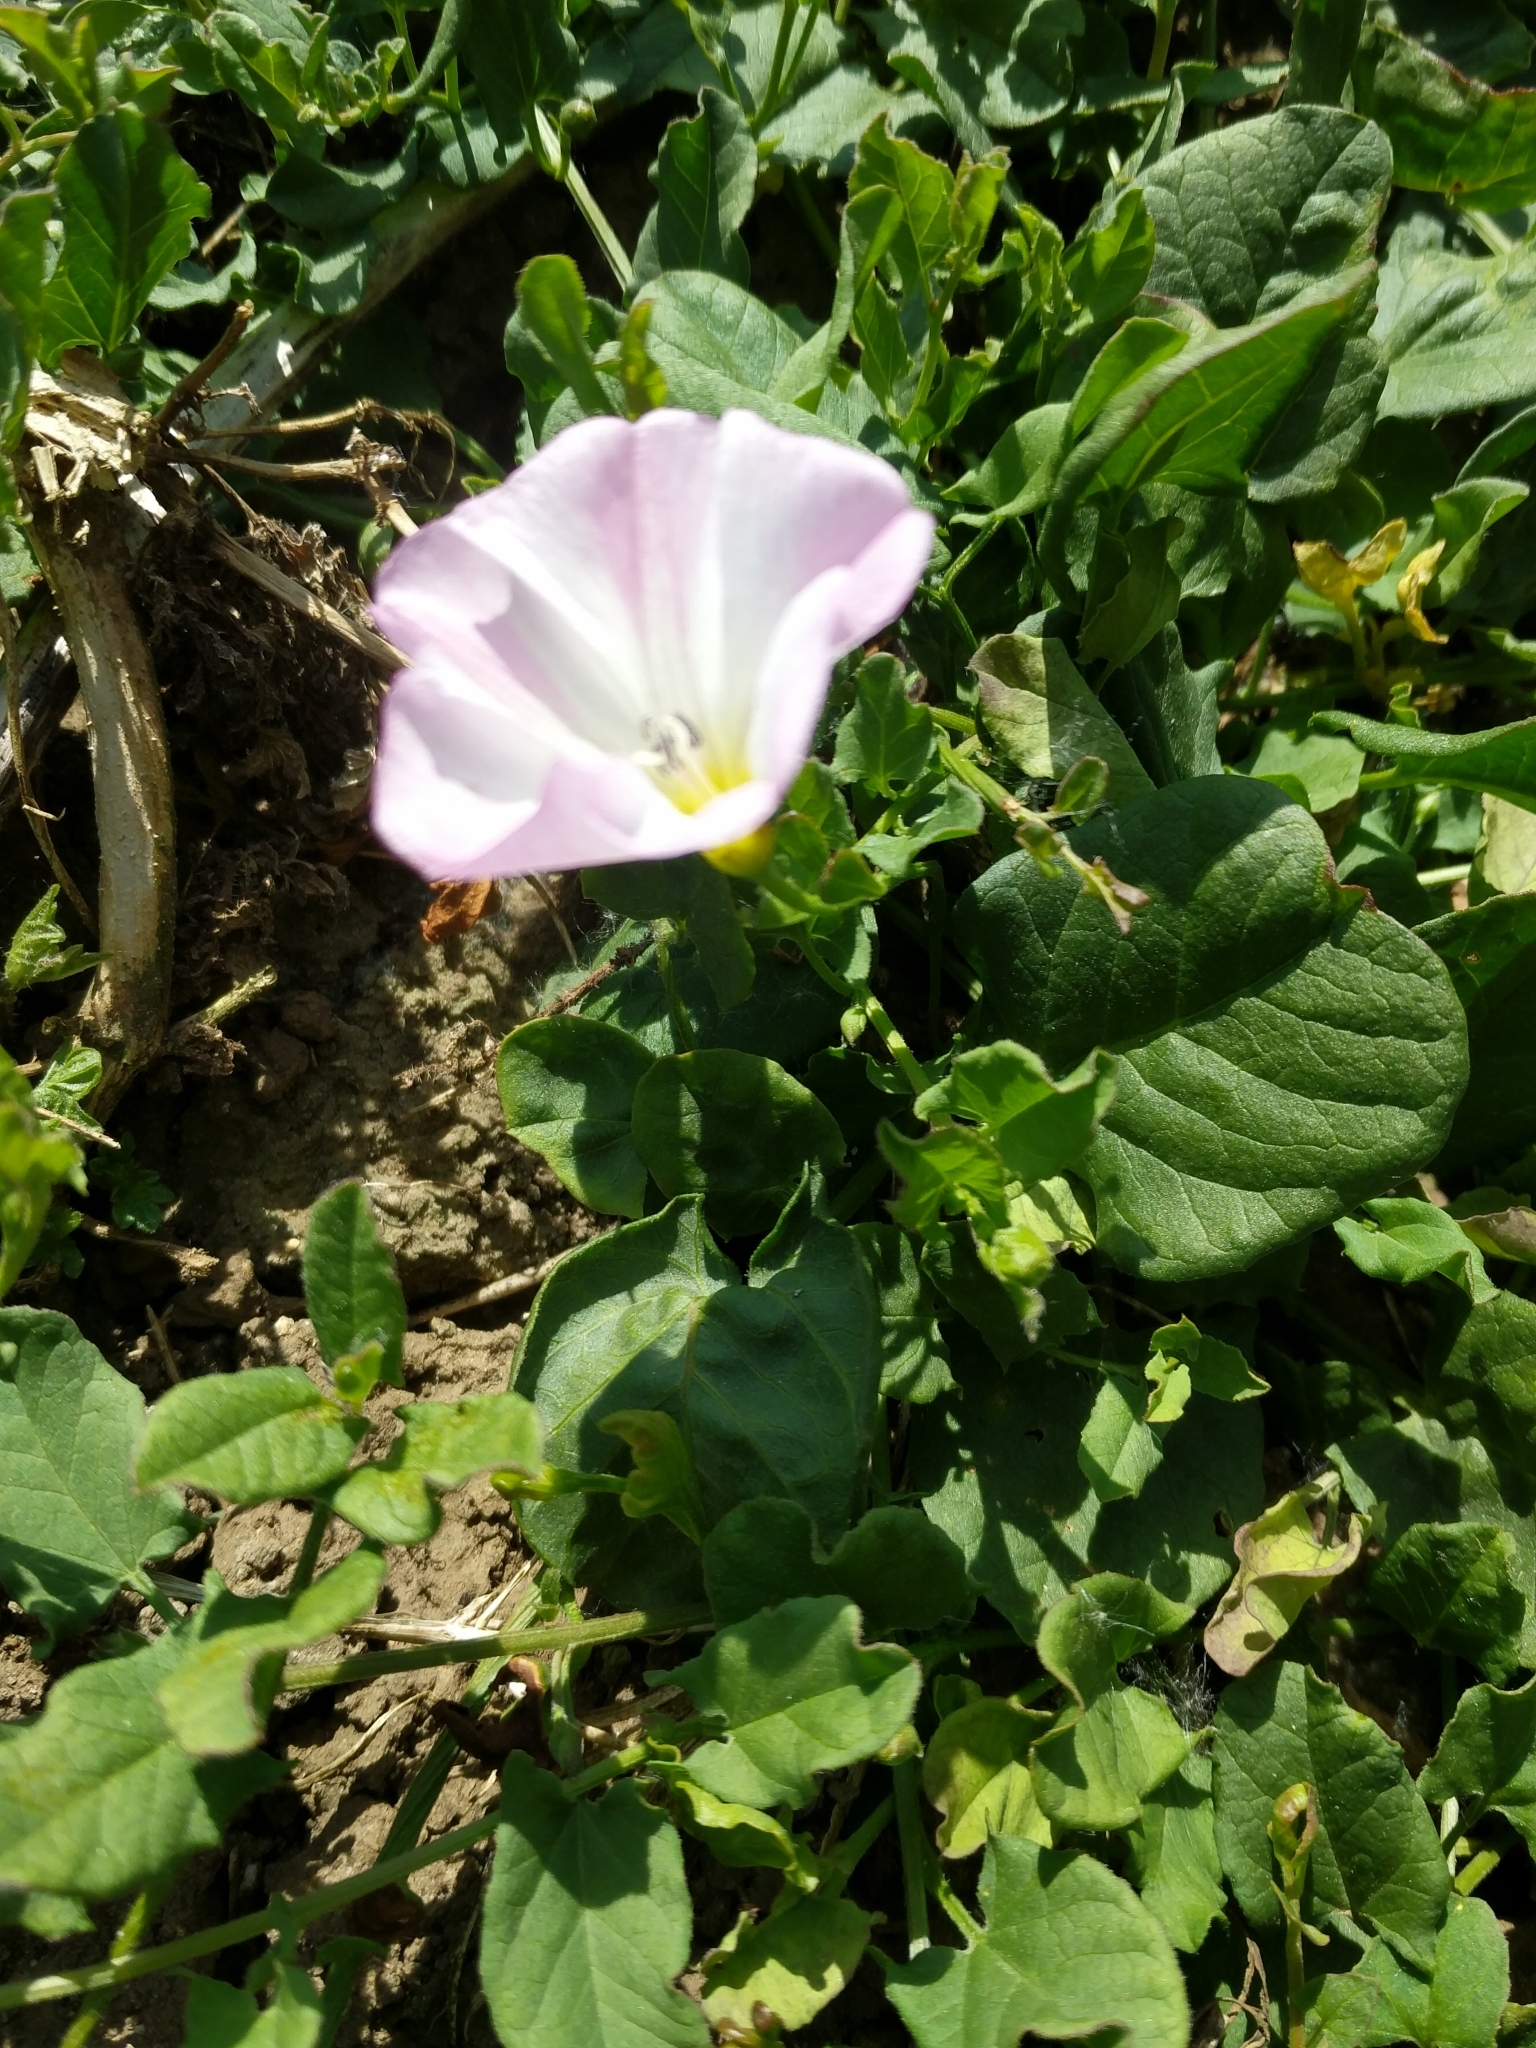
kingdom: Plantae
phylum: Tracheophyta
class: Magnoliopsida
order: Solanales
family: Convolvulaceae
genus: Convolvulus
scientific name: Convolvulus arvensis
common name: Field bindweed
